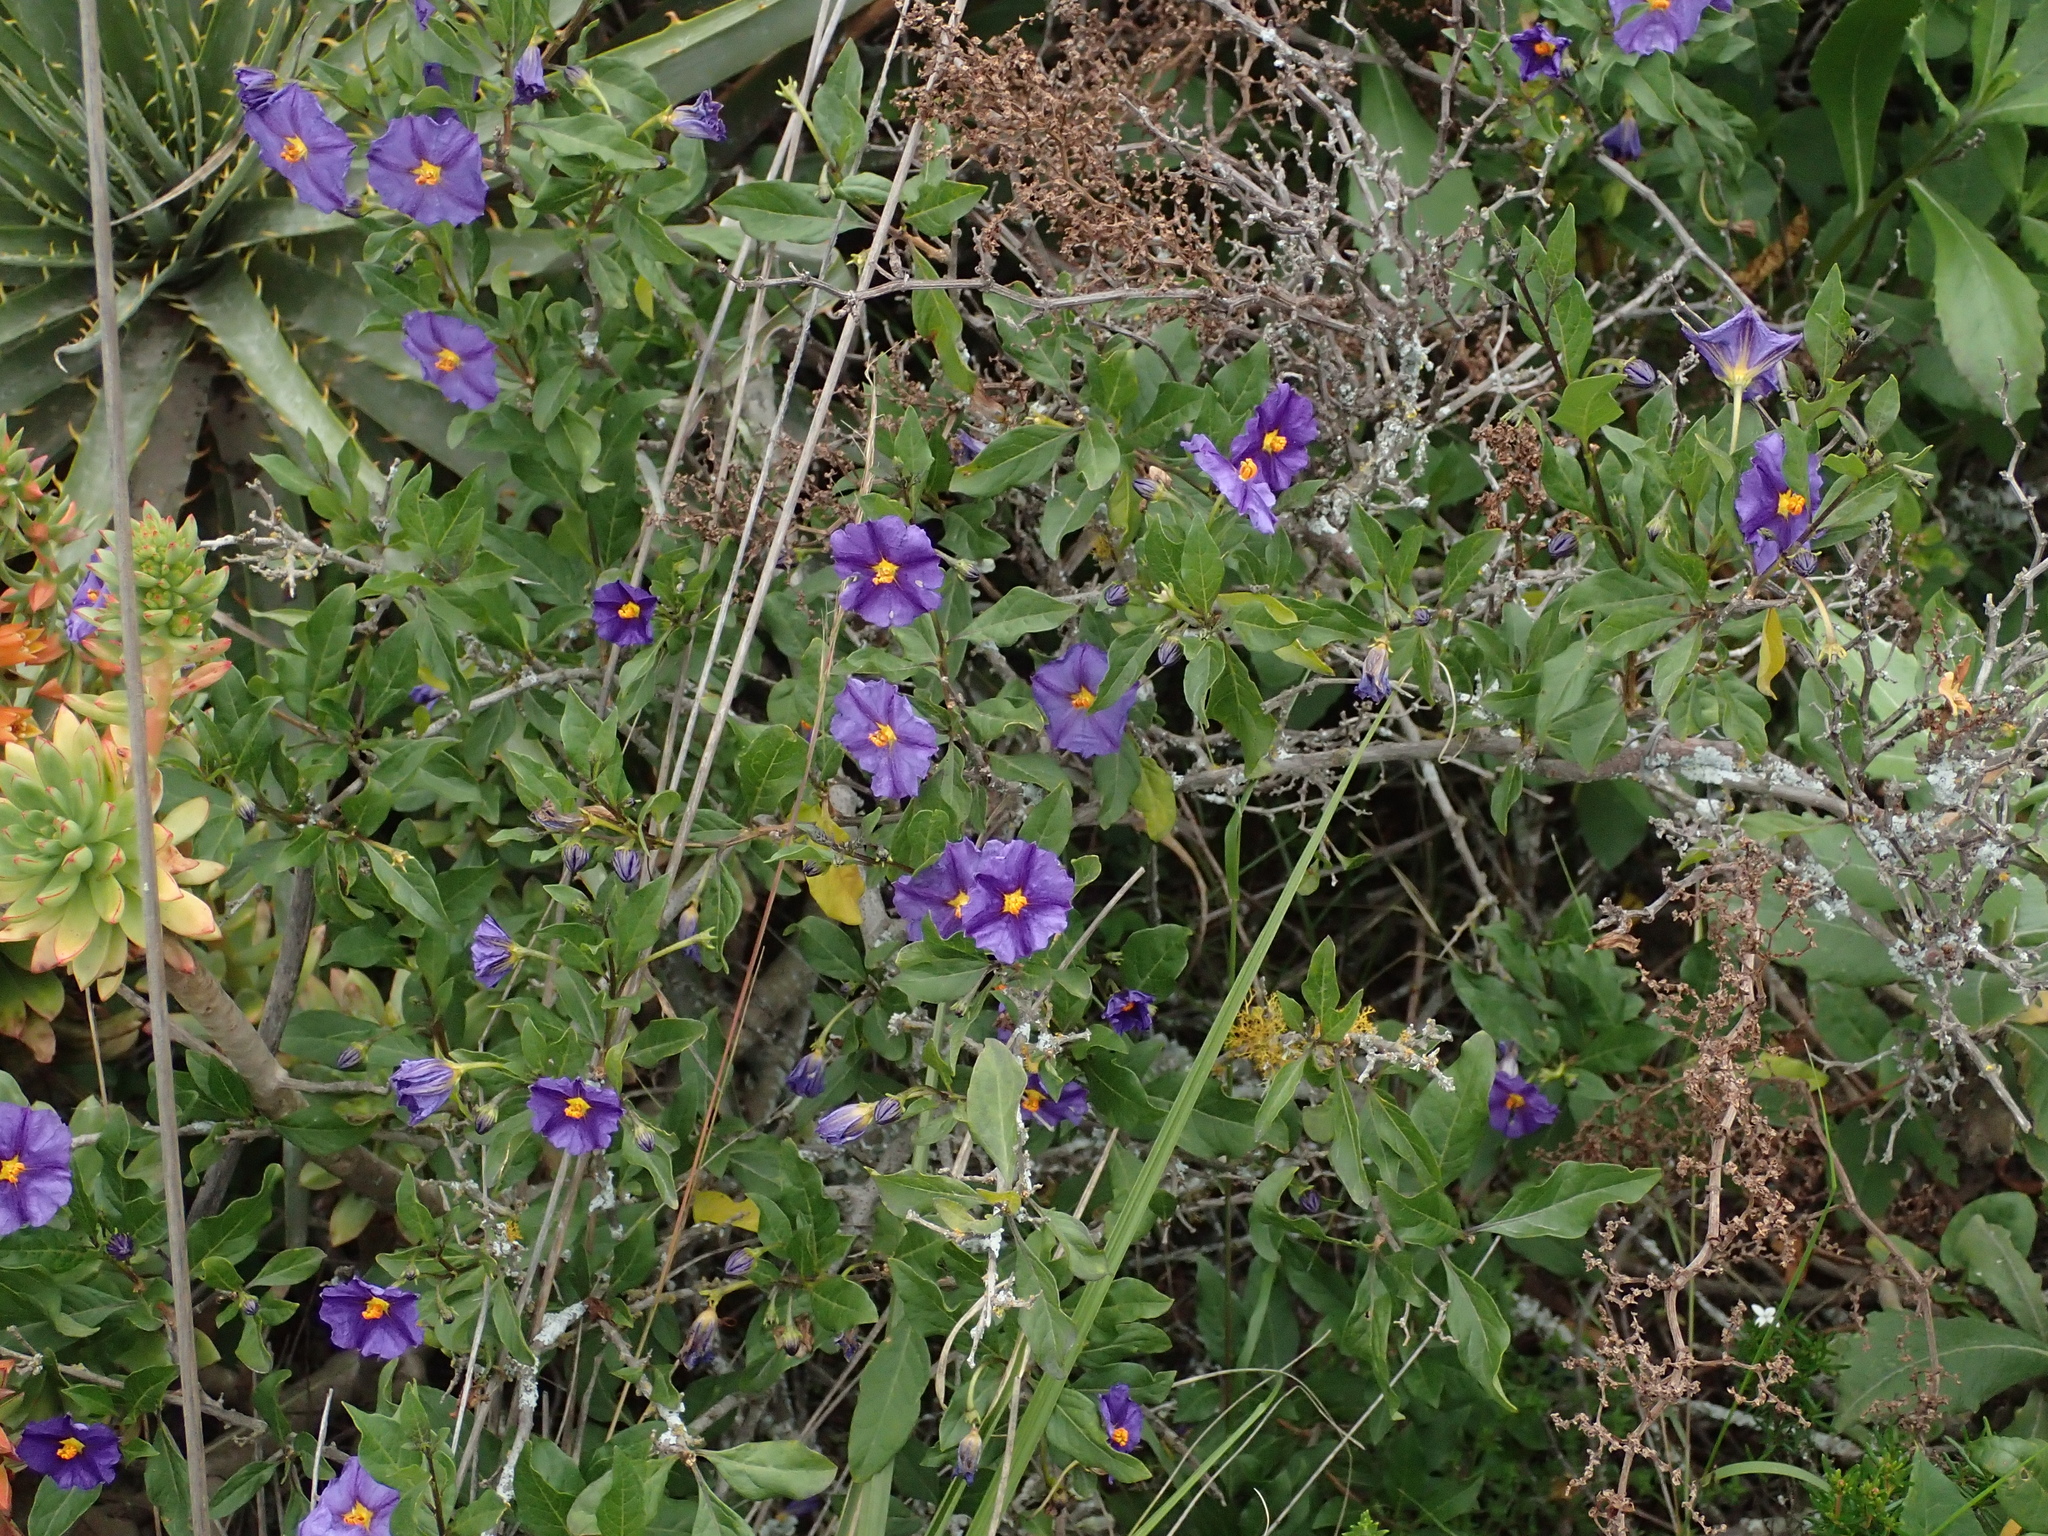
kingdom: Plantae
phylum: Tracheophyta
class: Magnoliopsida
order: Solanales
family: Solanaceae
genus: Lycianthes
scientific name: Lycianthes lycioides
